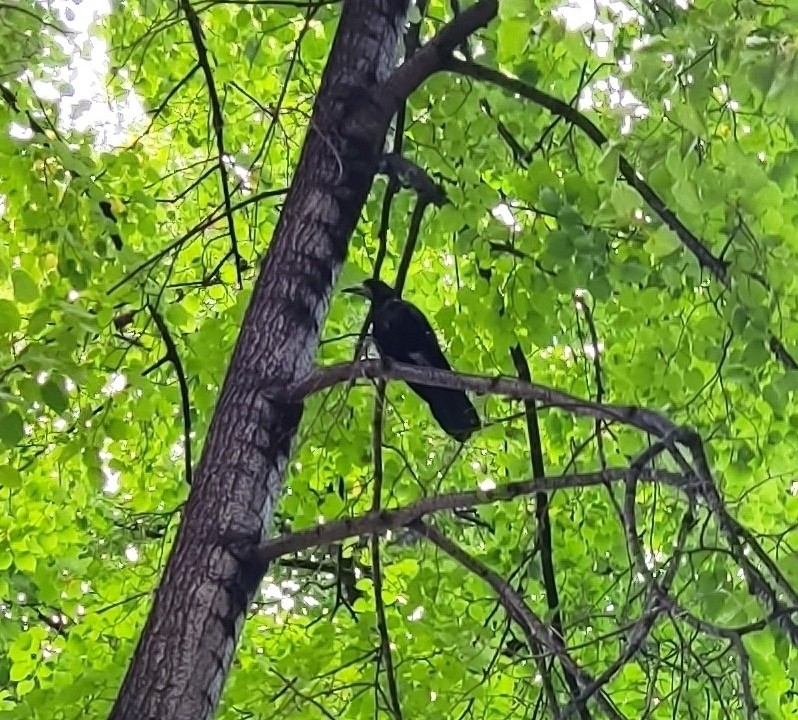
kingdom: Animalia
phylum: Chordata
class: Aves
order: Passeriformes
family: Corvidae
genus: Corvus
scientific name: Corvus frugilegus
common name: Rook
